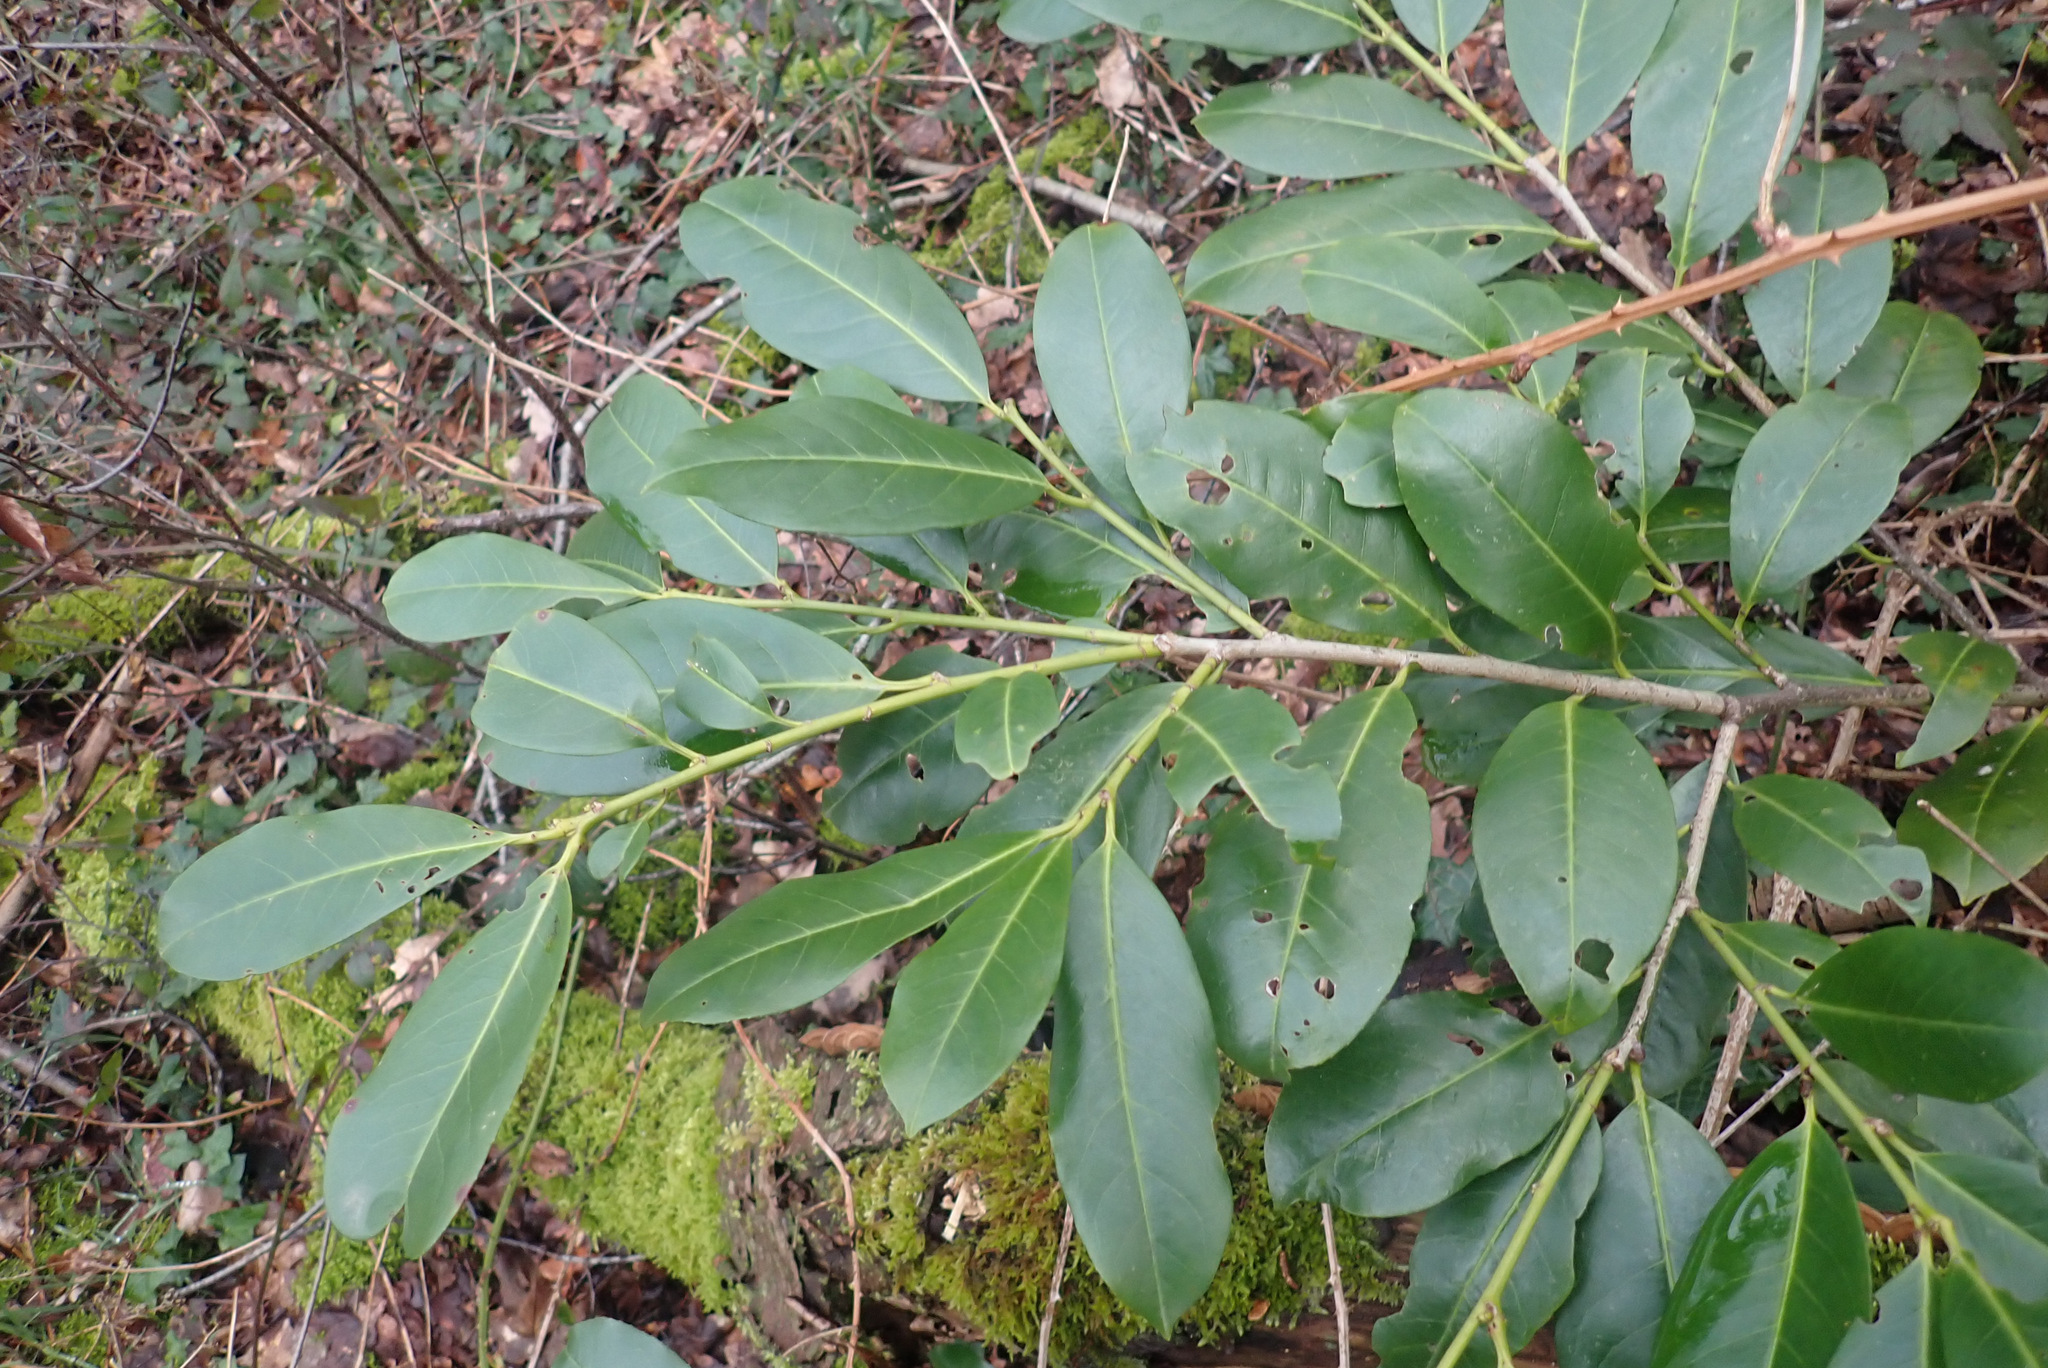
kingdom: Plantae
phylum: Tracheophyta
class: Magnoliopsida
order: Rosales
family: Rosaceae
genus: Prunus
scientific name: Prunus laurocerasus
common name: Cherry laurel
